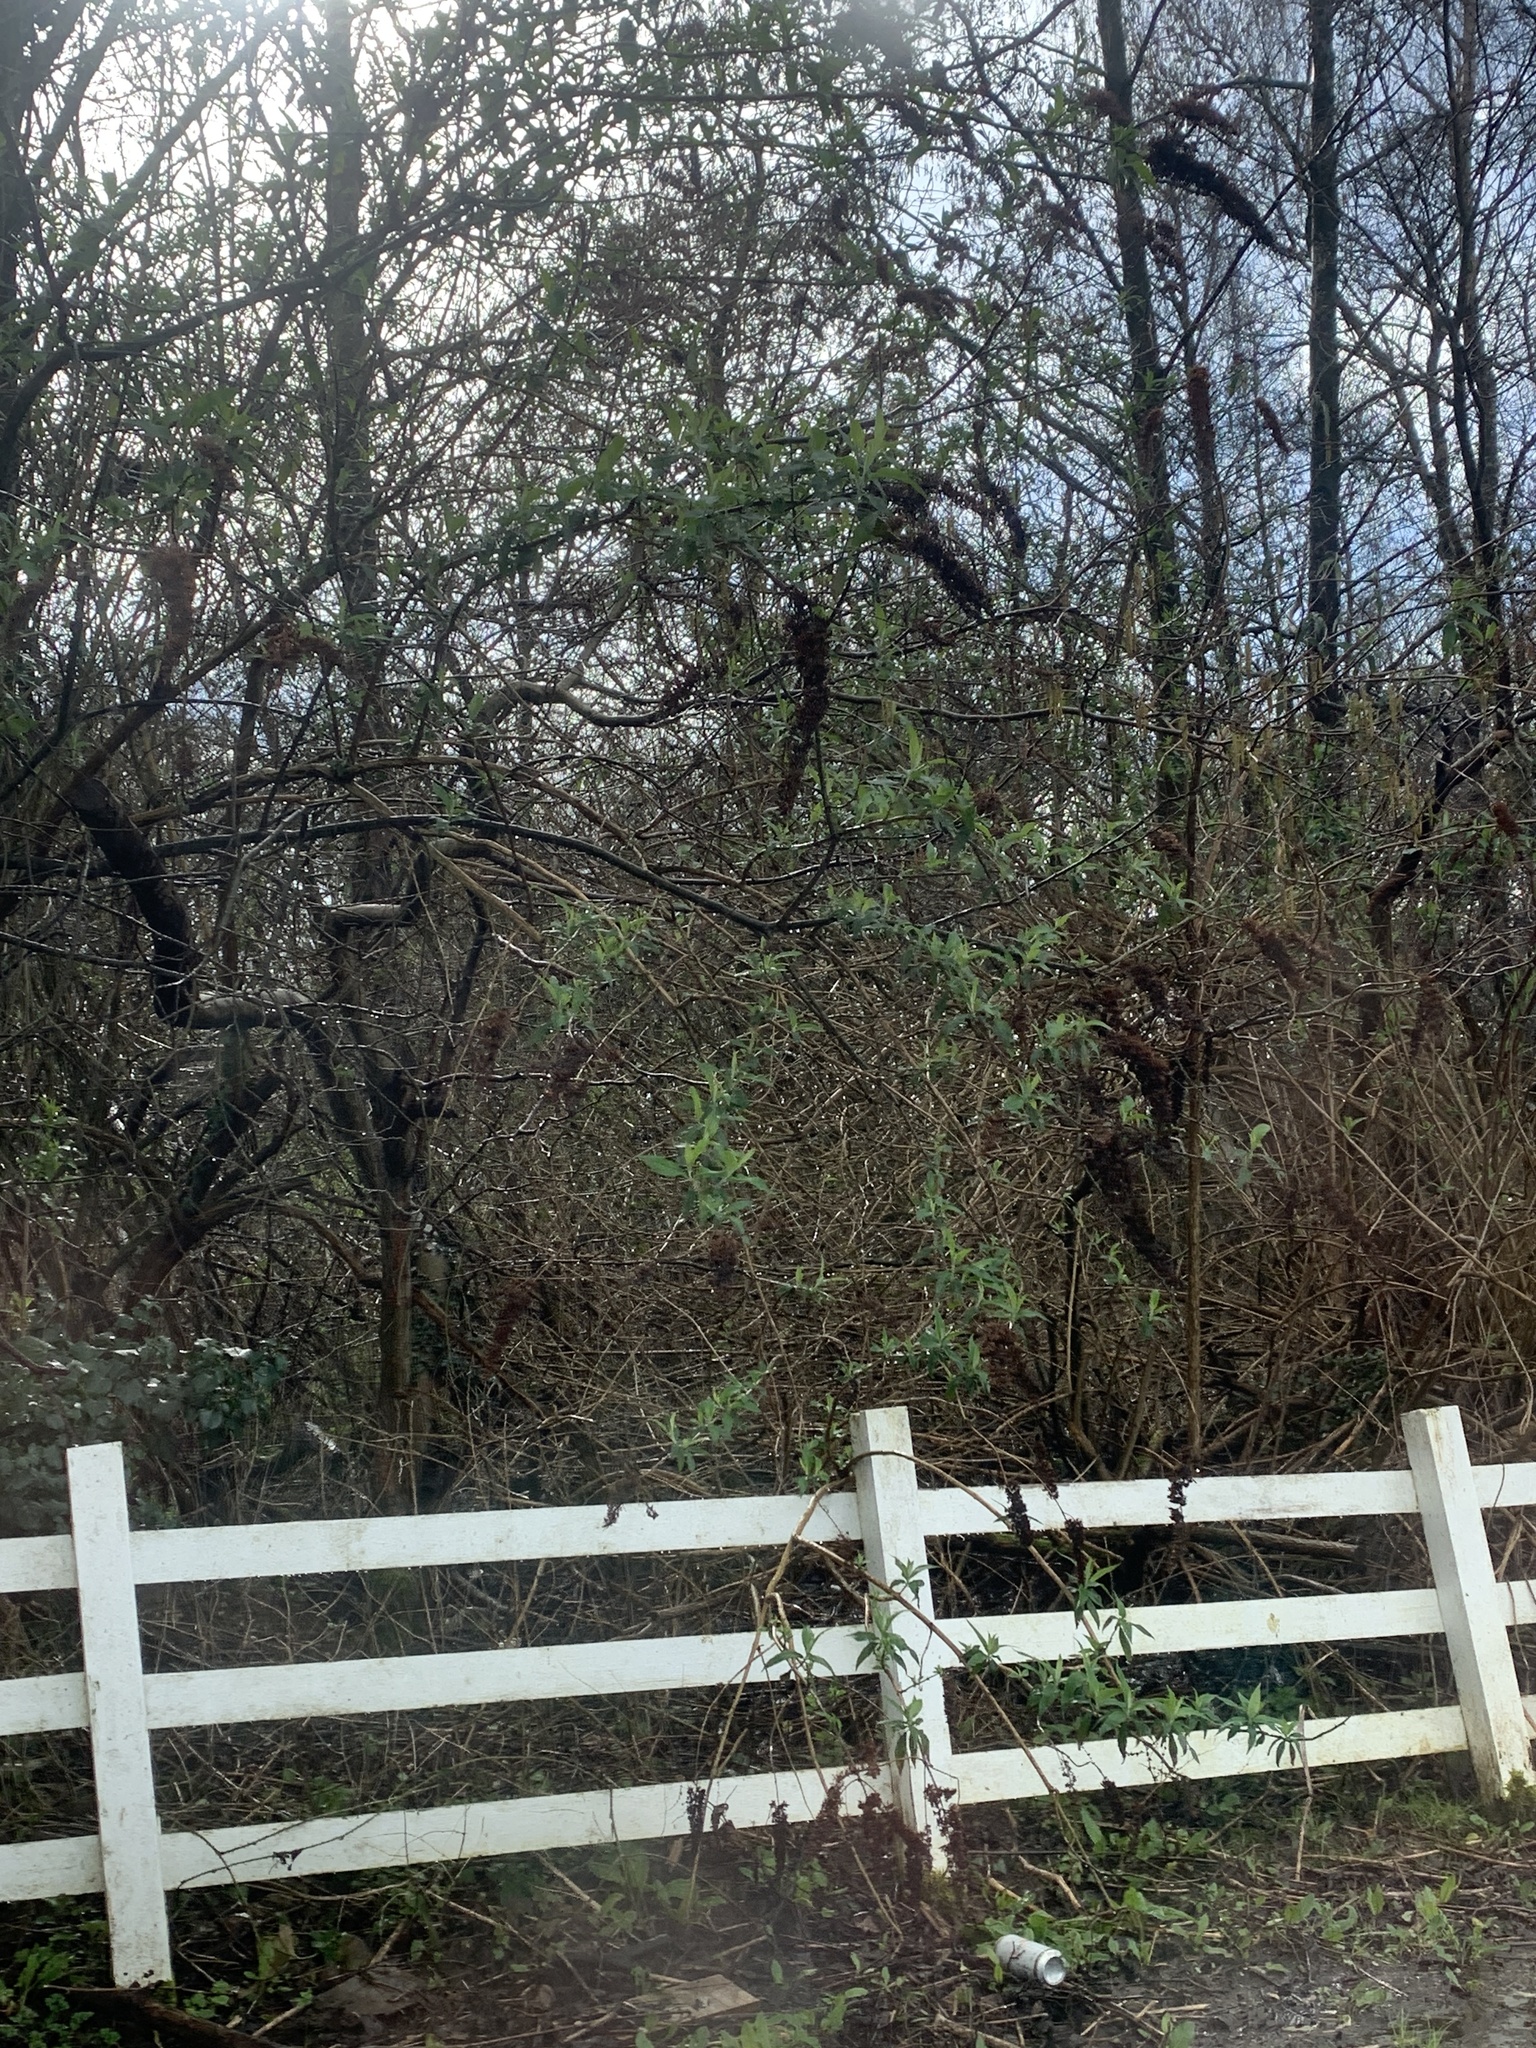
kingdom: Plantae
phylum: Tracheophyta
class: Magnoliopsida
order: Lamiales
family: Scrophulariaceae
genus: Buddleja
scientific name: Buddleja davidii
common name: Butterfly-bush
